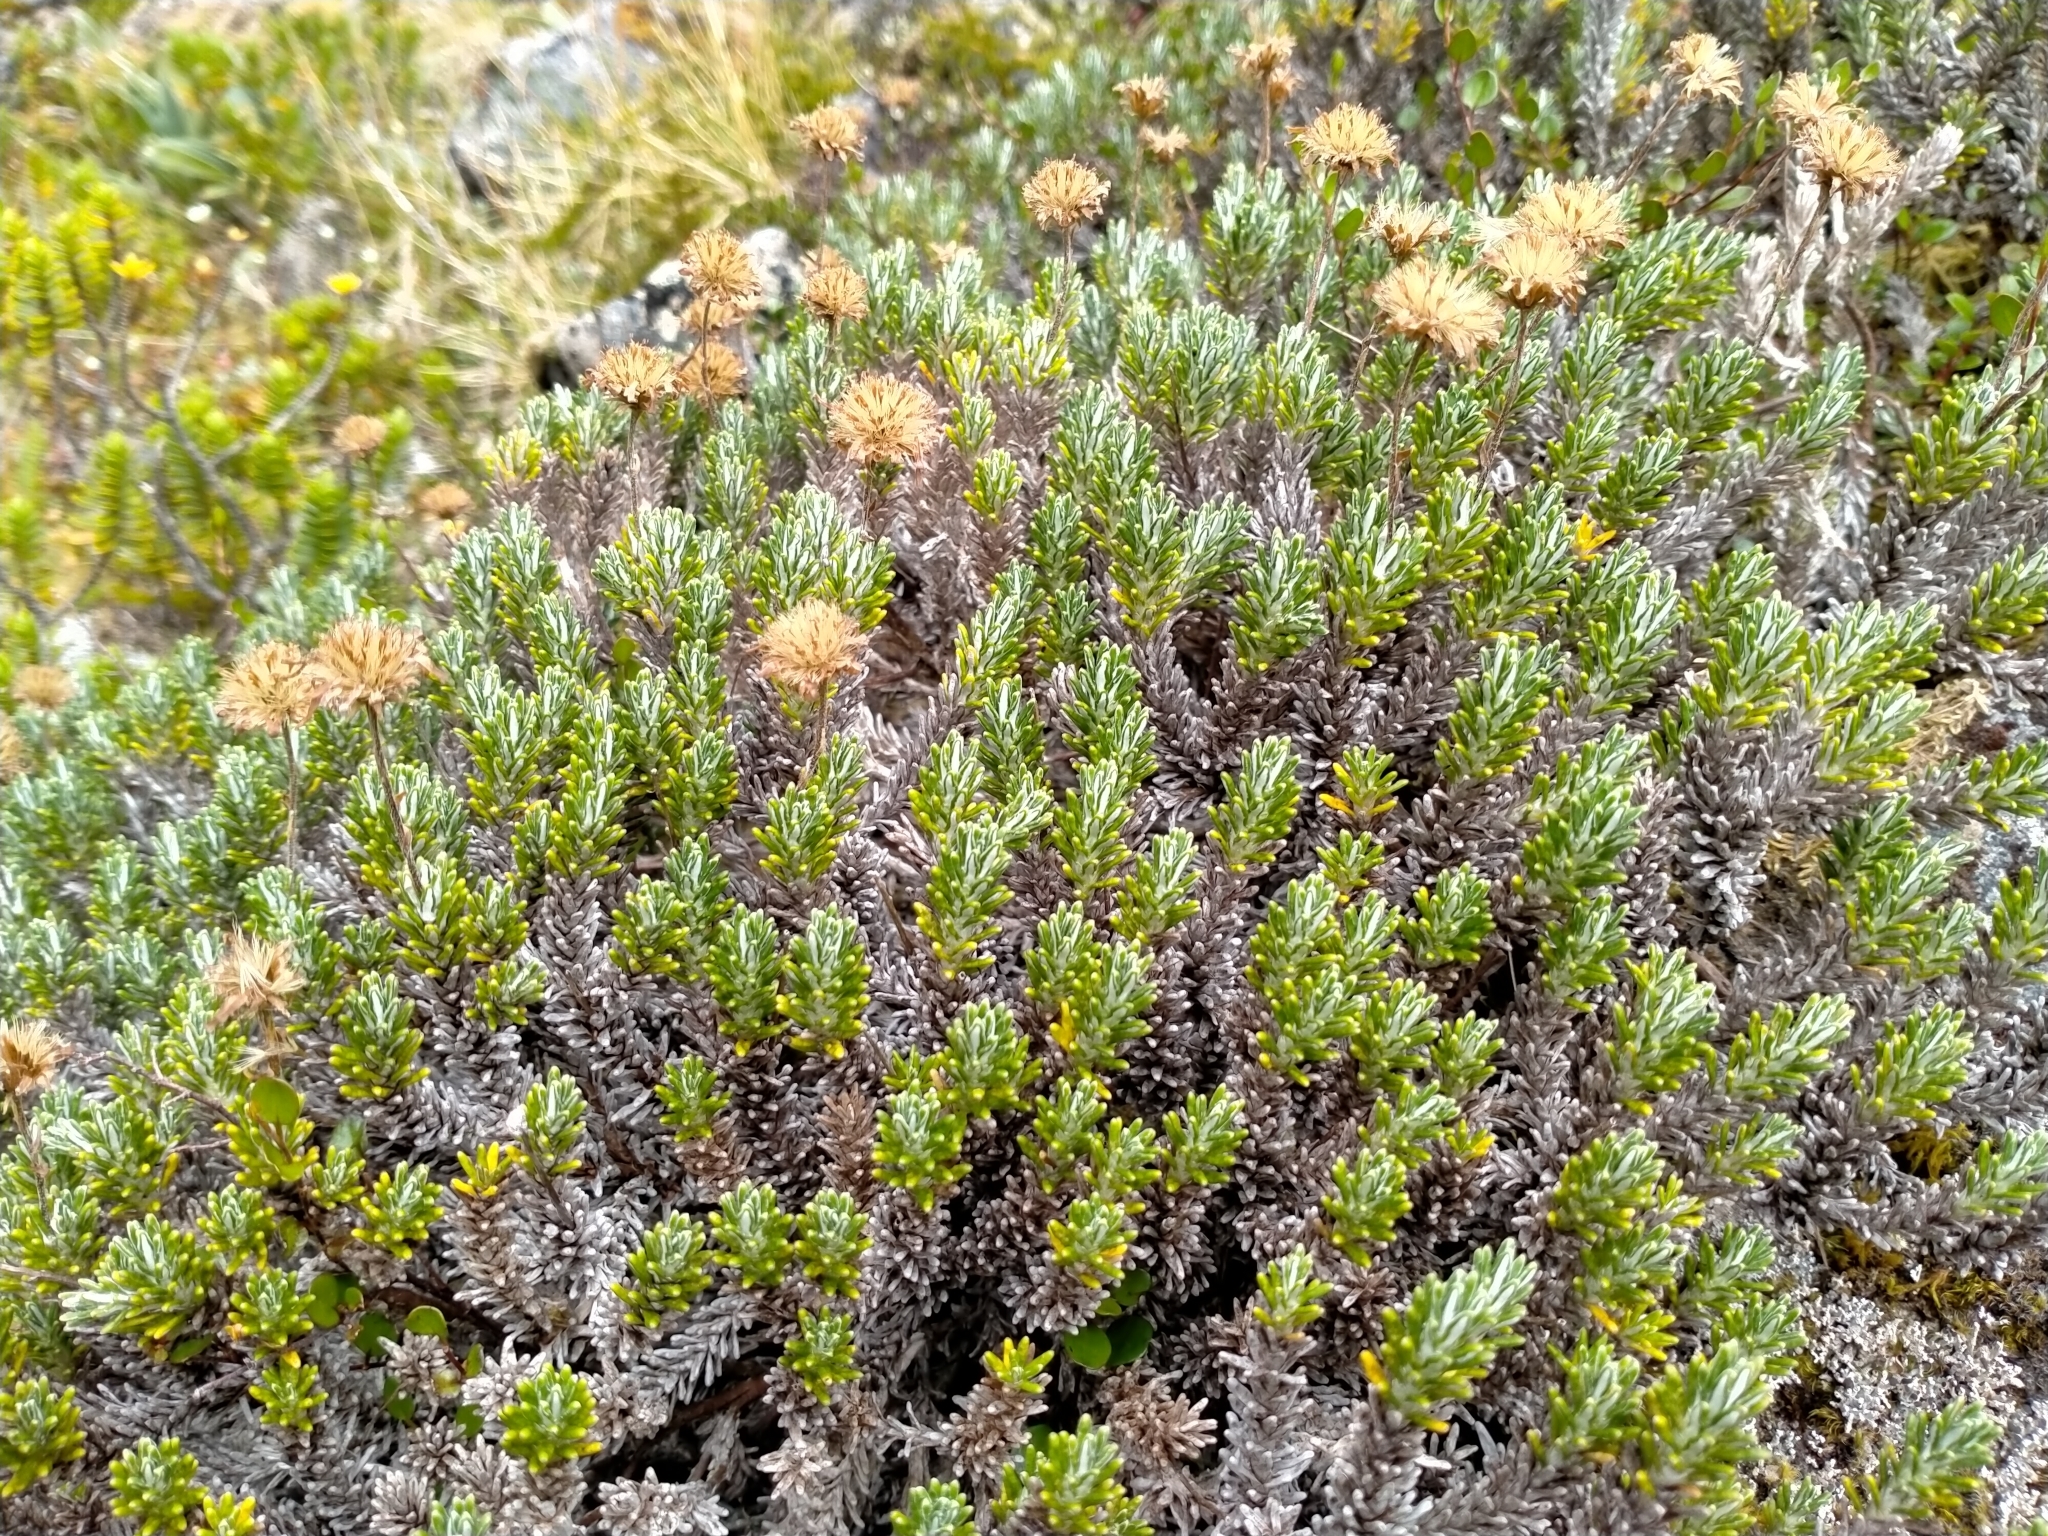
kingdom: Plantae
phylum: Tracheophyta
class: Magnoliopsida
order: Asterales
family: Asteraceae
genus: Celmisia
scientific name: Celmisia ramulosa
